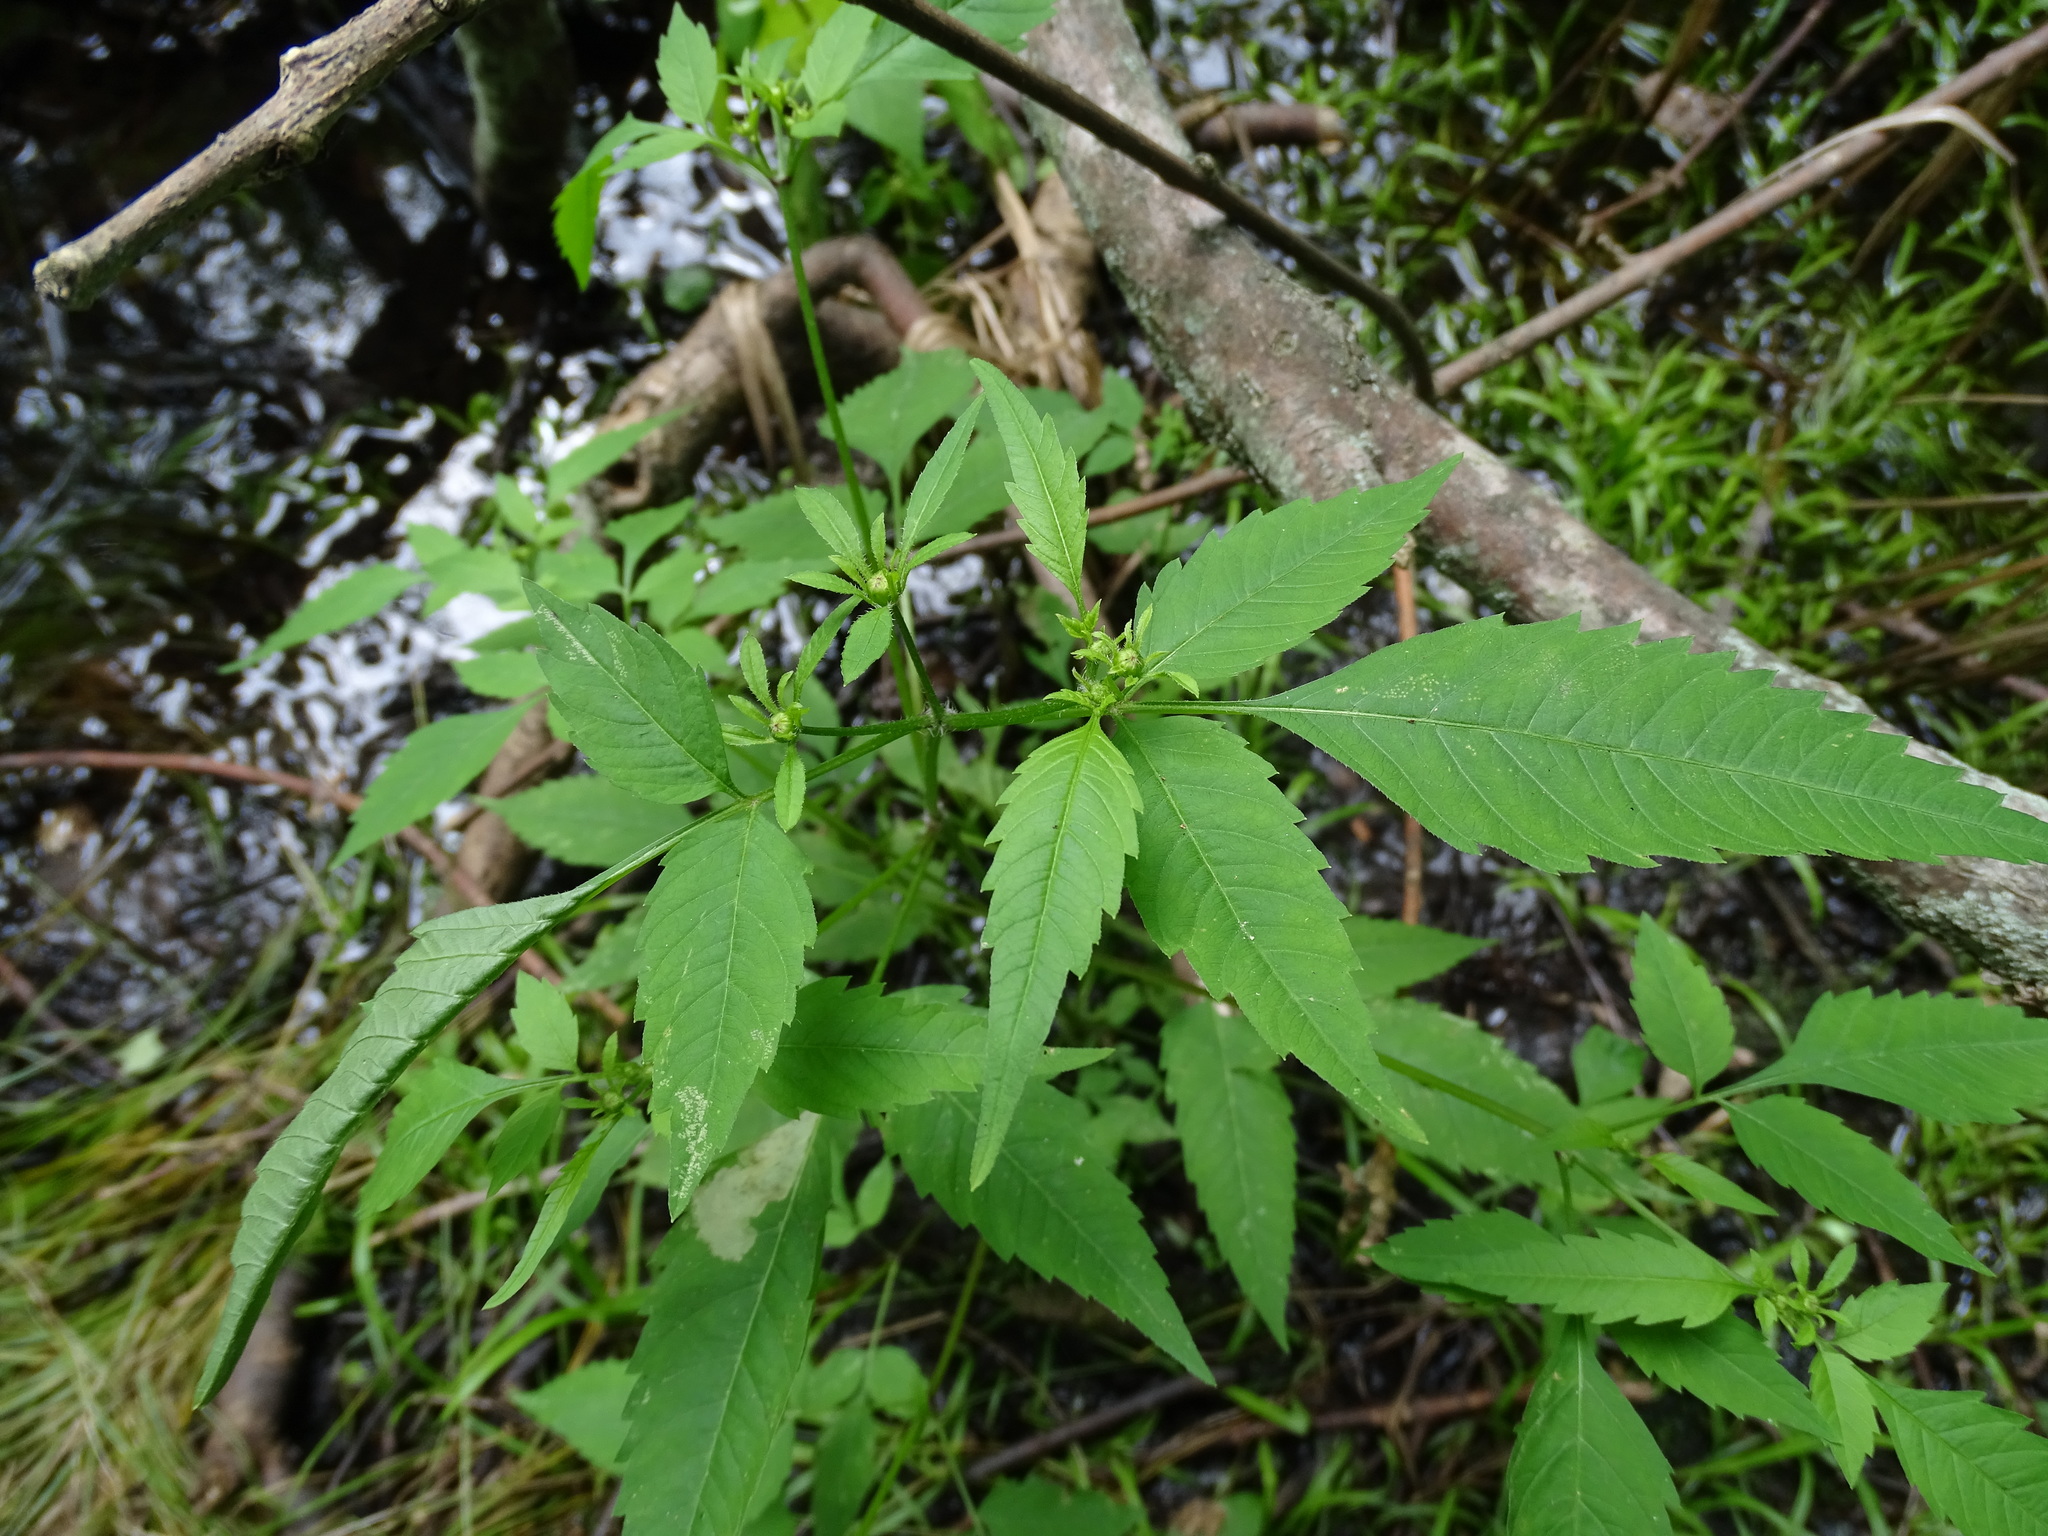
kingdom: Plantae
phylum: Tracheophyta
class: Magnoliopsida
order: Asterales
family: Asteraceae
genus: Bidens
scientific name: Bidens frondosa
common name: Beggarticks
